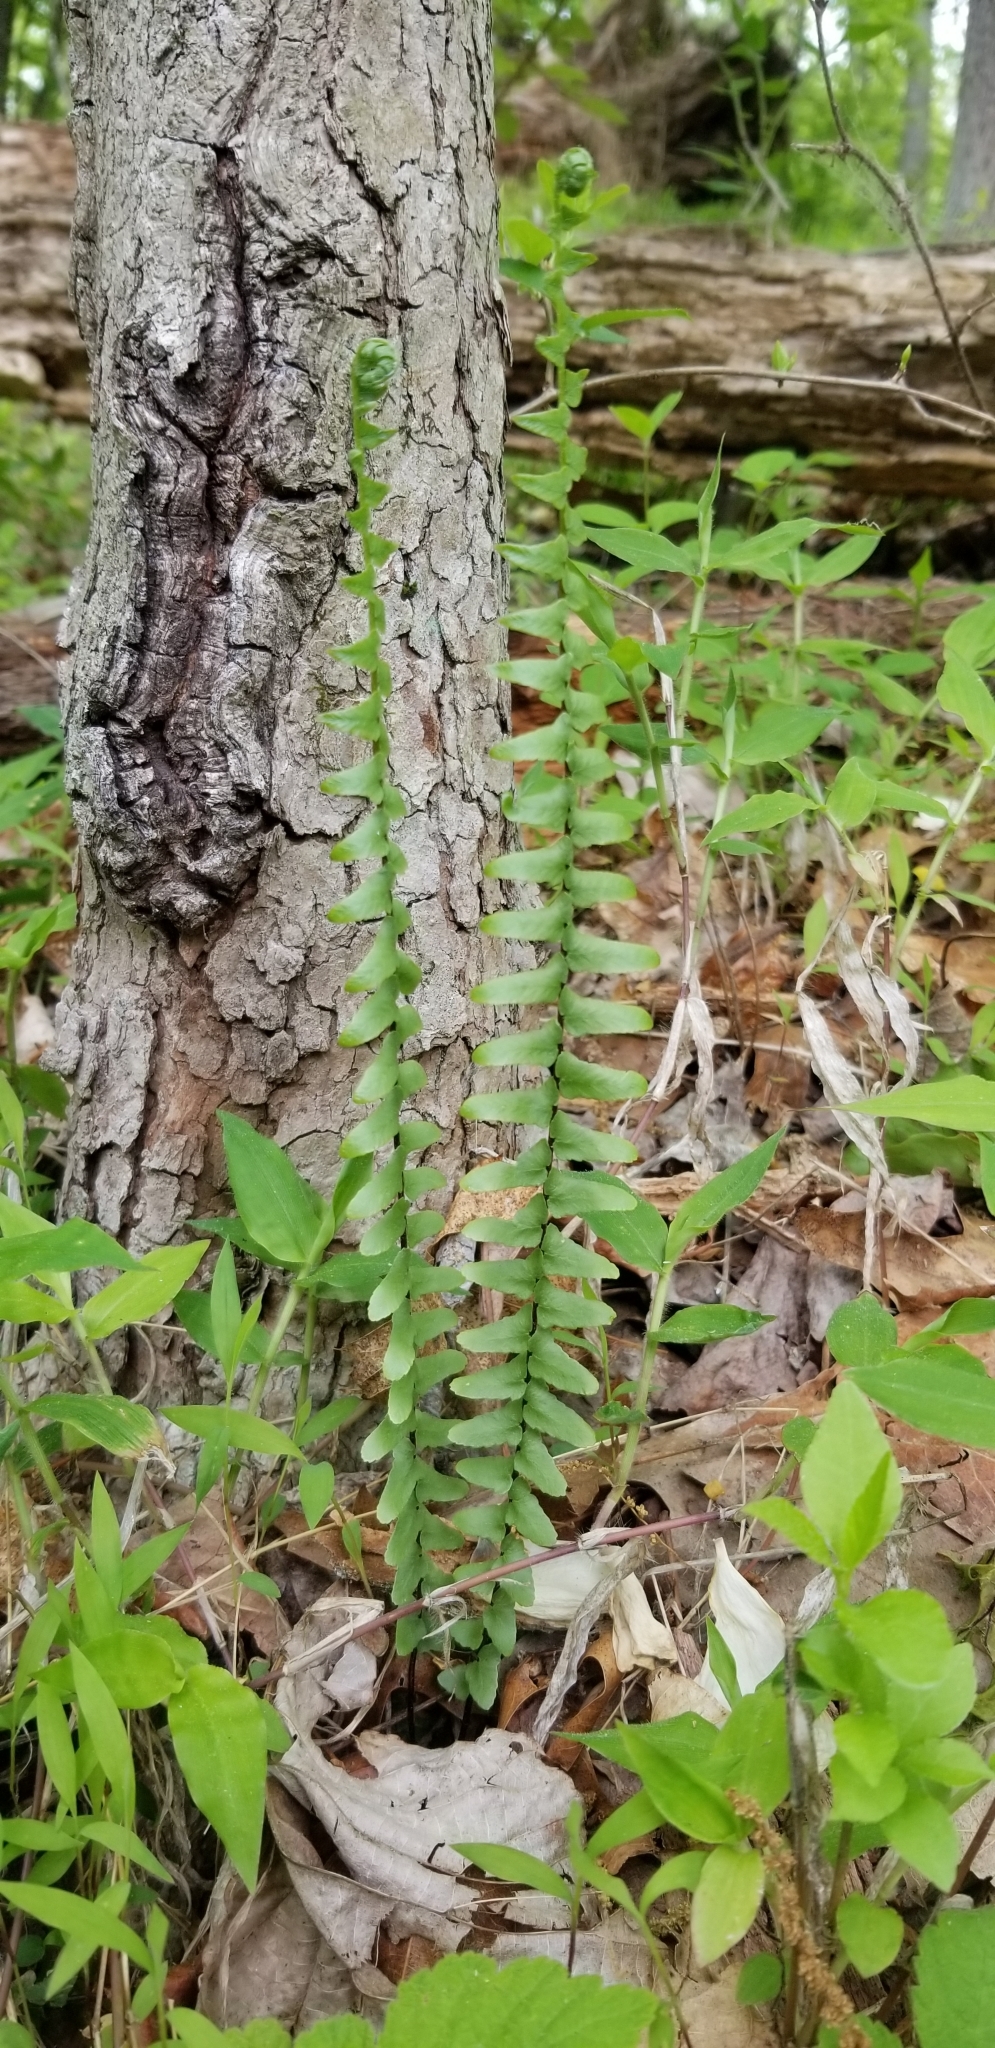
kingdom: Plantae
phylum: Tracheophyta
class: Polypodiopsida
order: Polypodiales
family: Aspleniaceae
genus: Asplenium
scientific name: Asplenium platyneuron
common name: Ebony spleenwort
